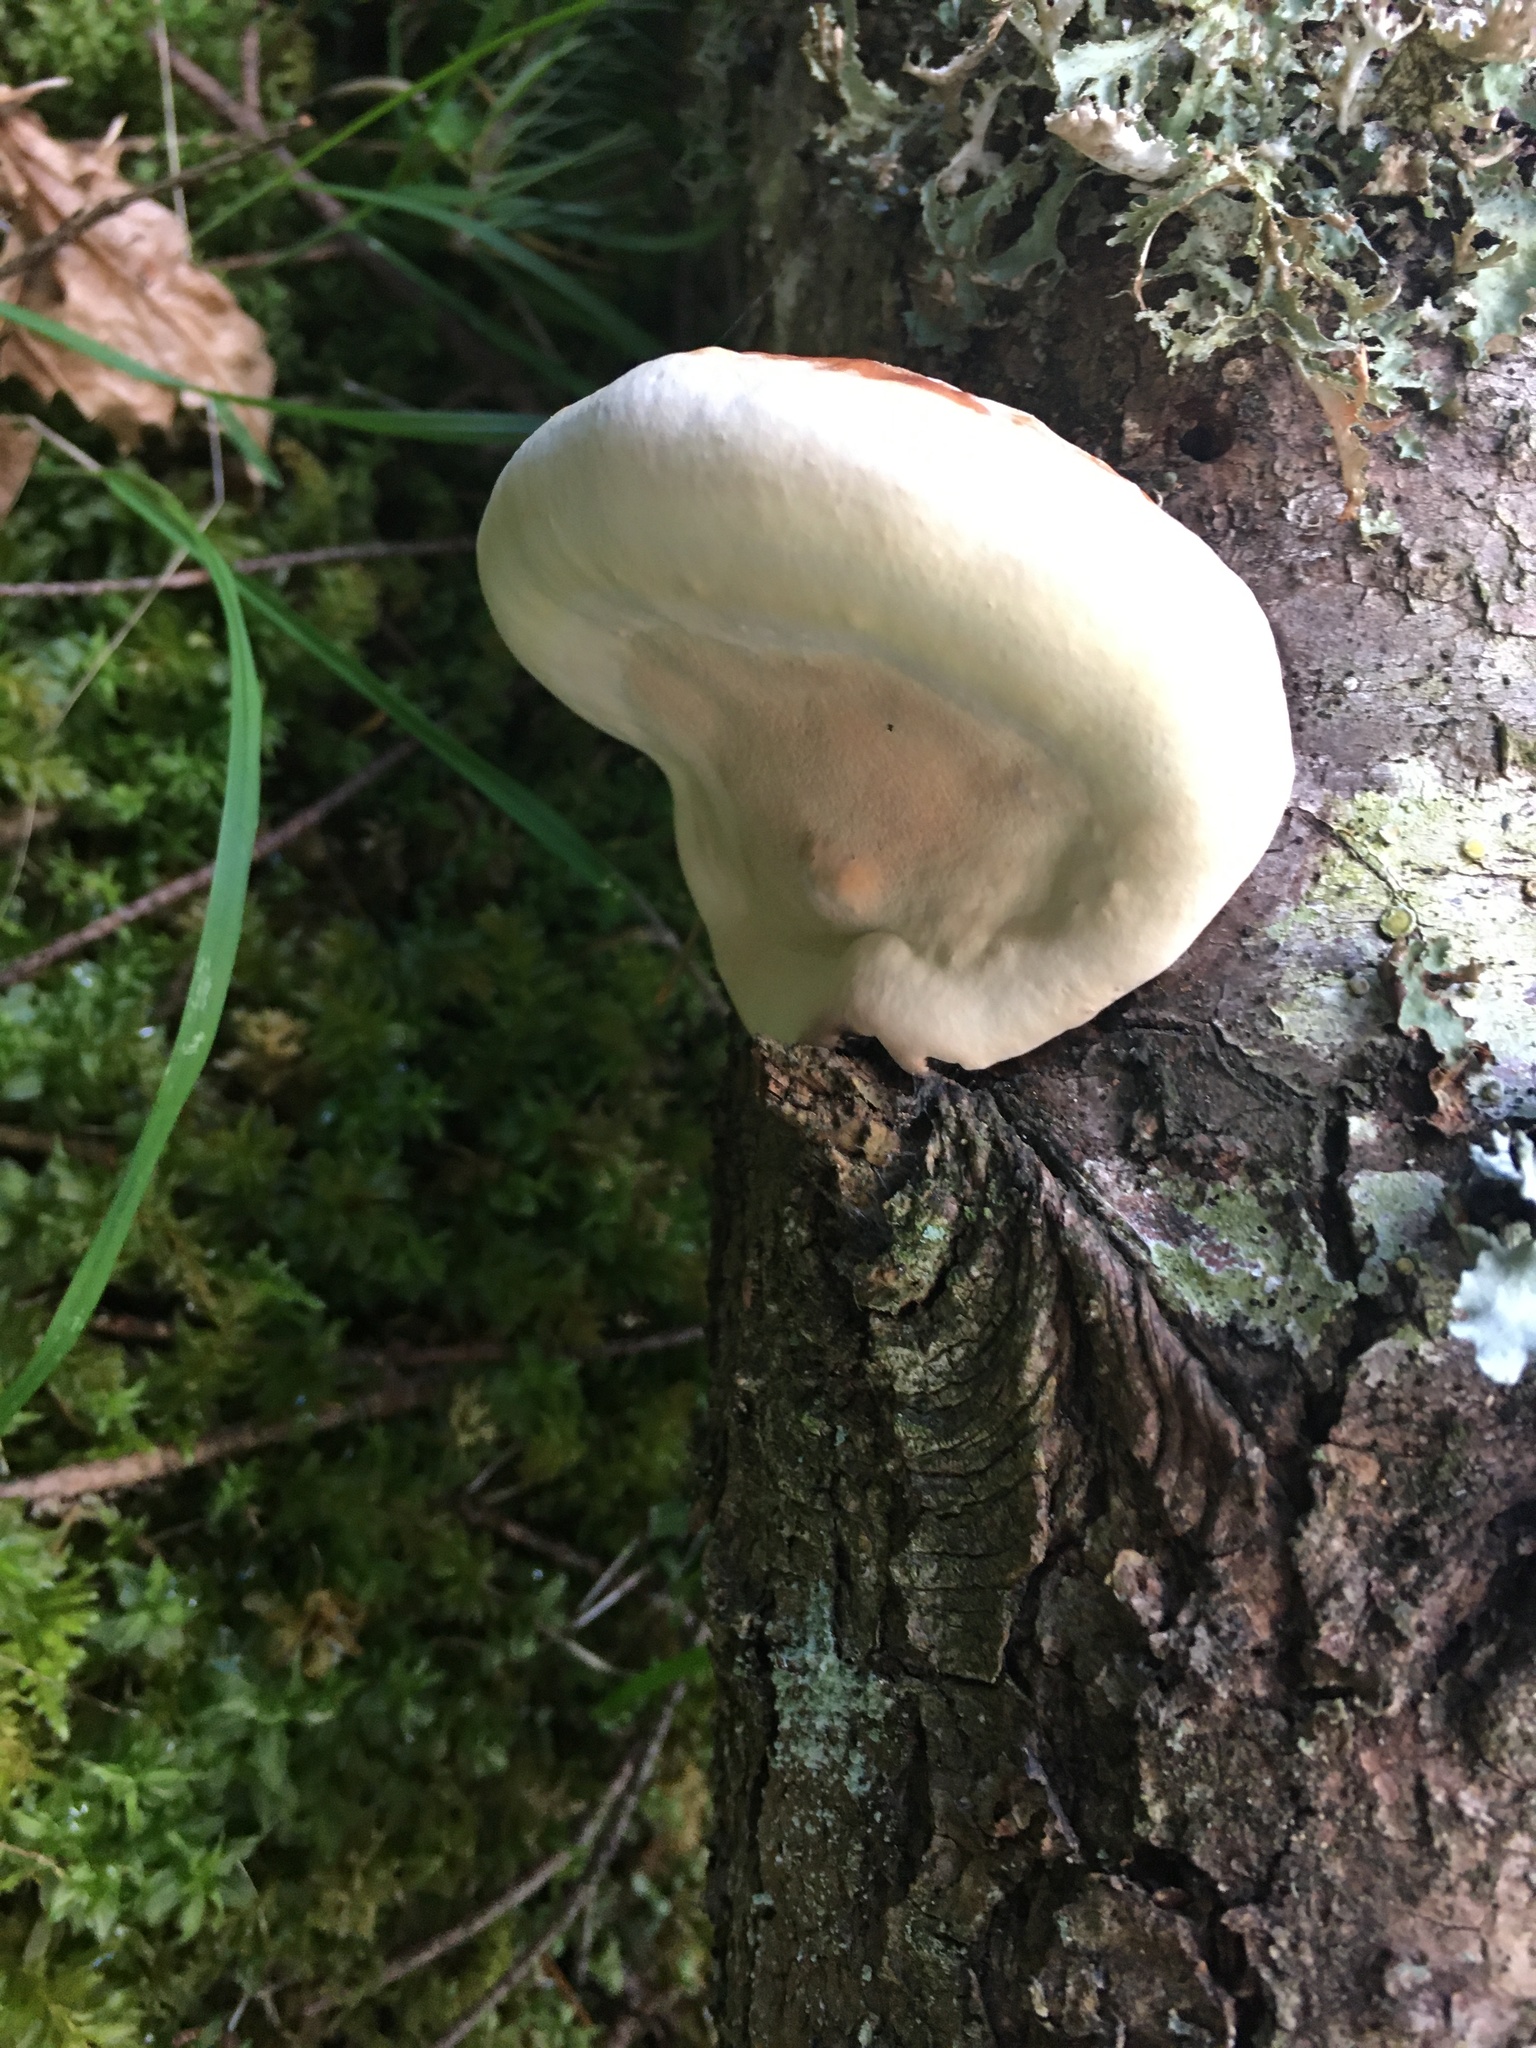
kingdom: Fungi
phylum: Basidiomycota
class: Agaricomycetes
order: Polyporales
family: Fomitopsidaceae
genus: Fomitopsis
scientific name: Fomitopsis mounceae
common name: Northern red belt
